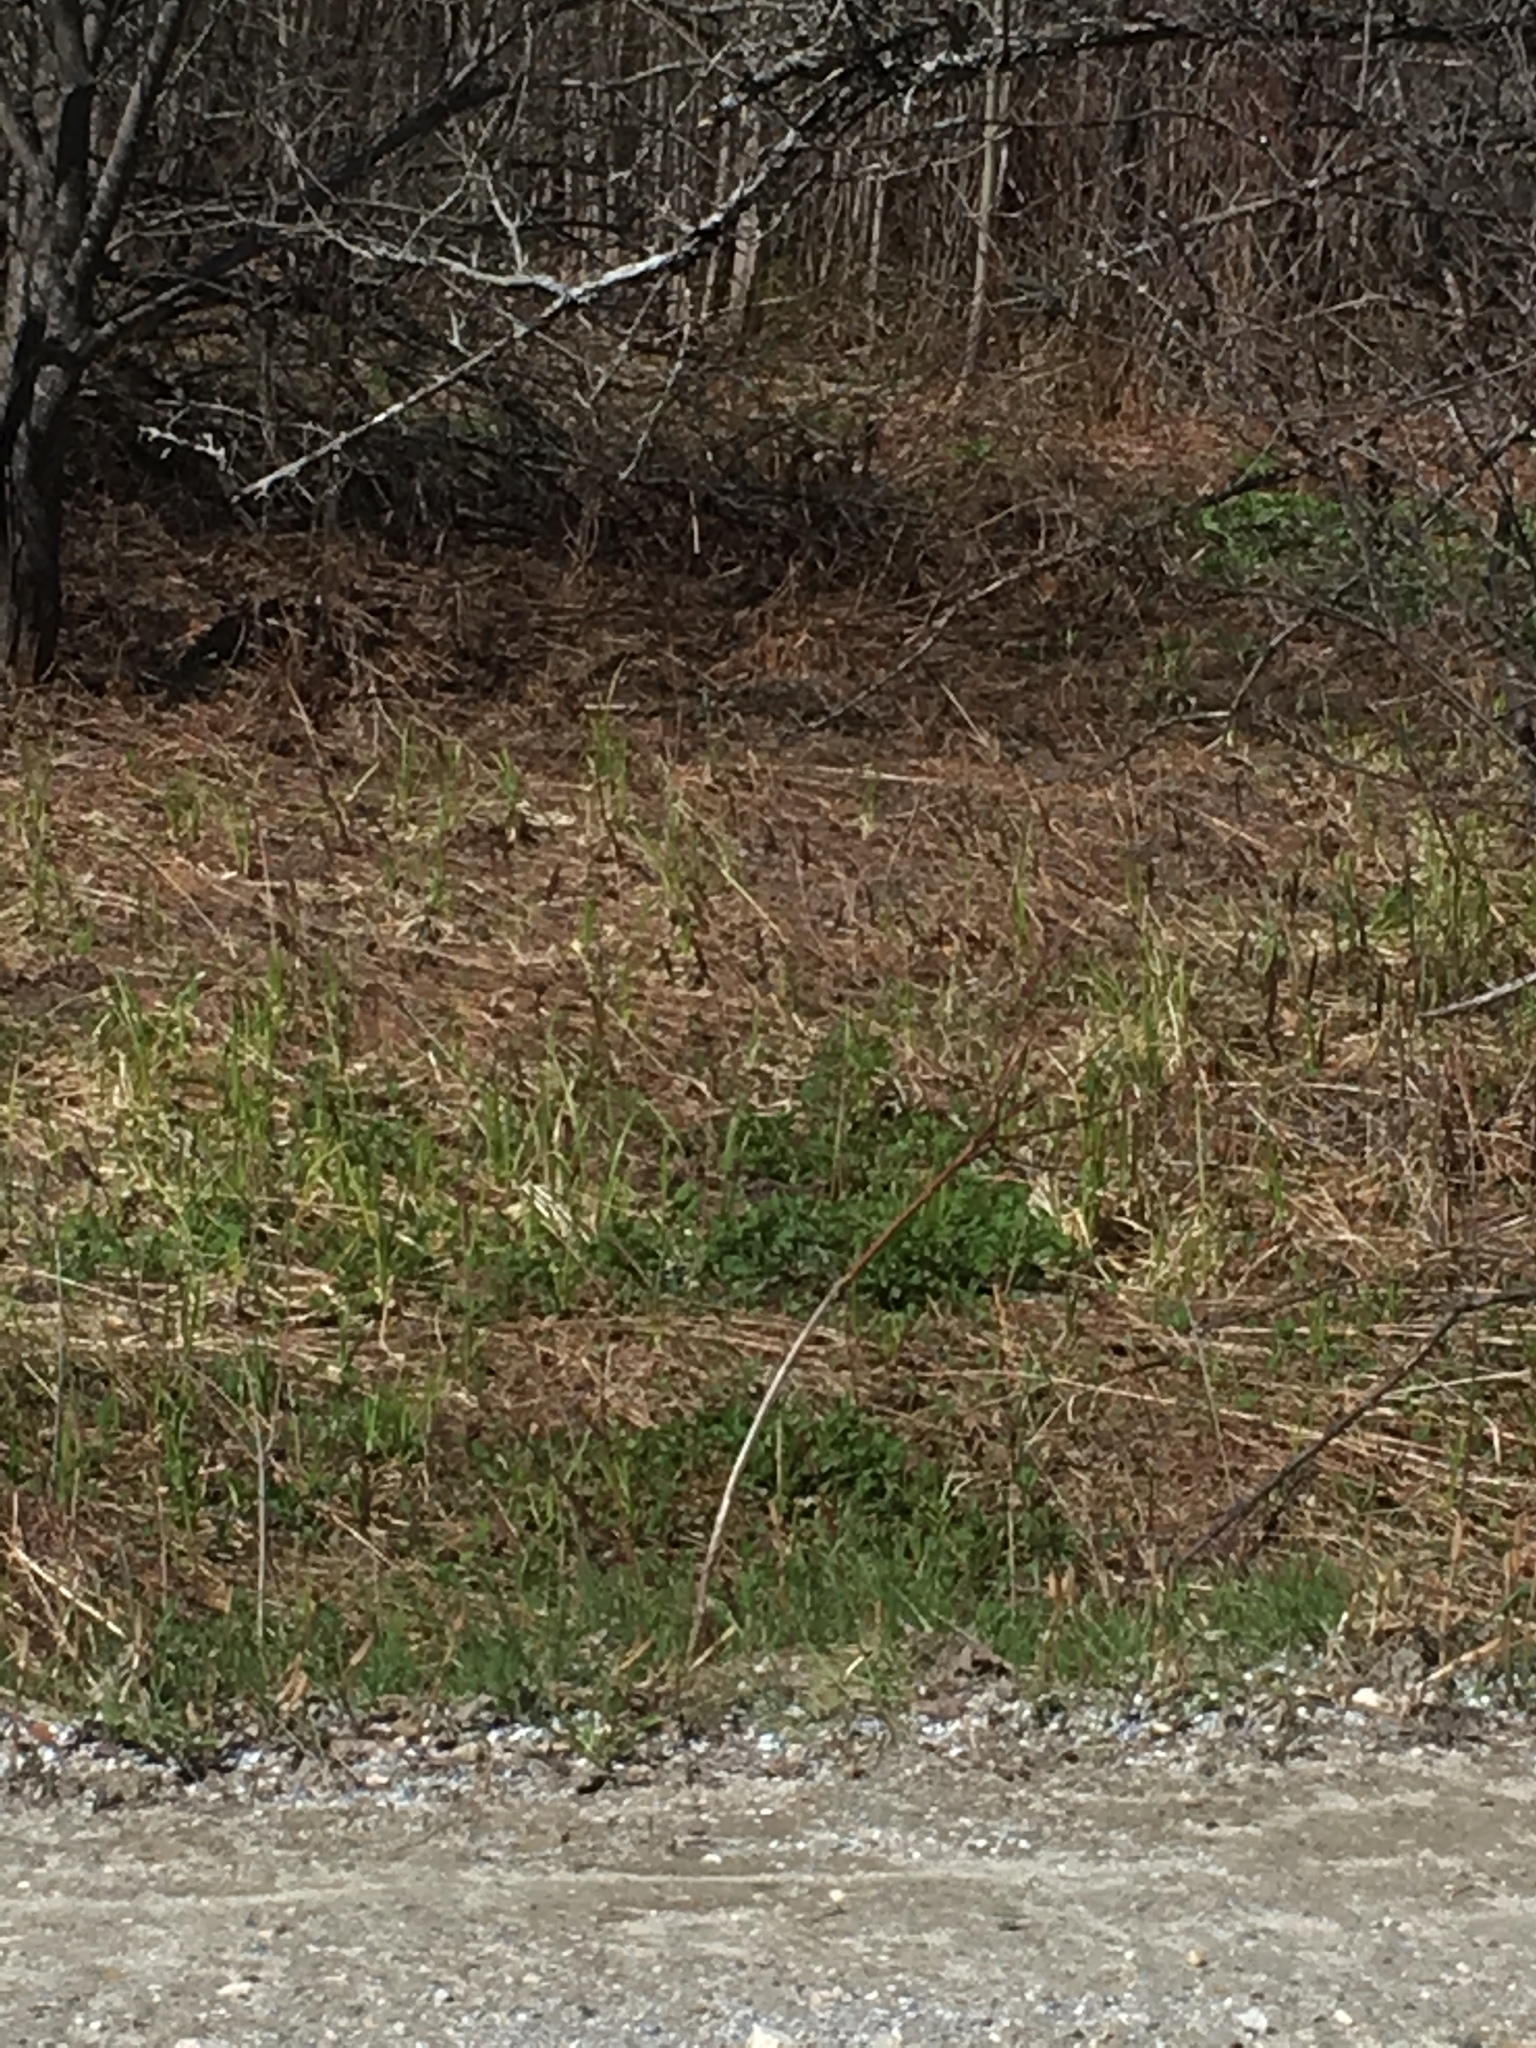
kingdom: Plantae
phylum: Tracheophyta
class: Polypodiopsida
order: Polypodiales
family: Onocleaceae
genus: Onoclea
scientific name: Onoclea sensibilis
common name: Sensitive fern
